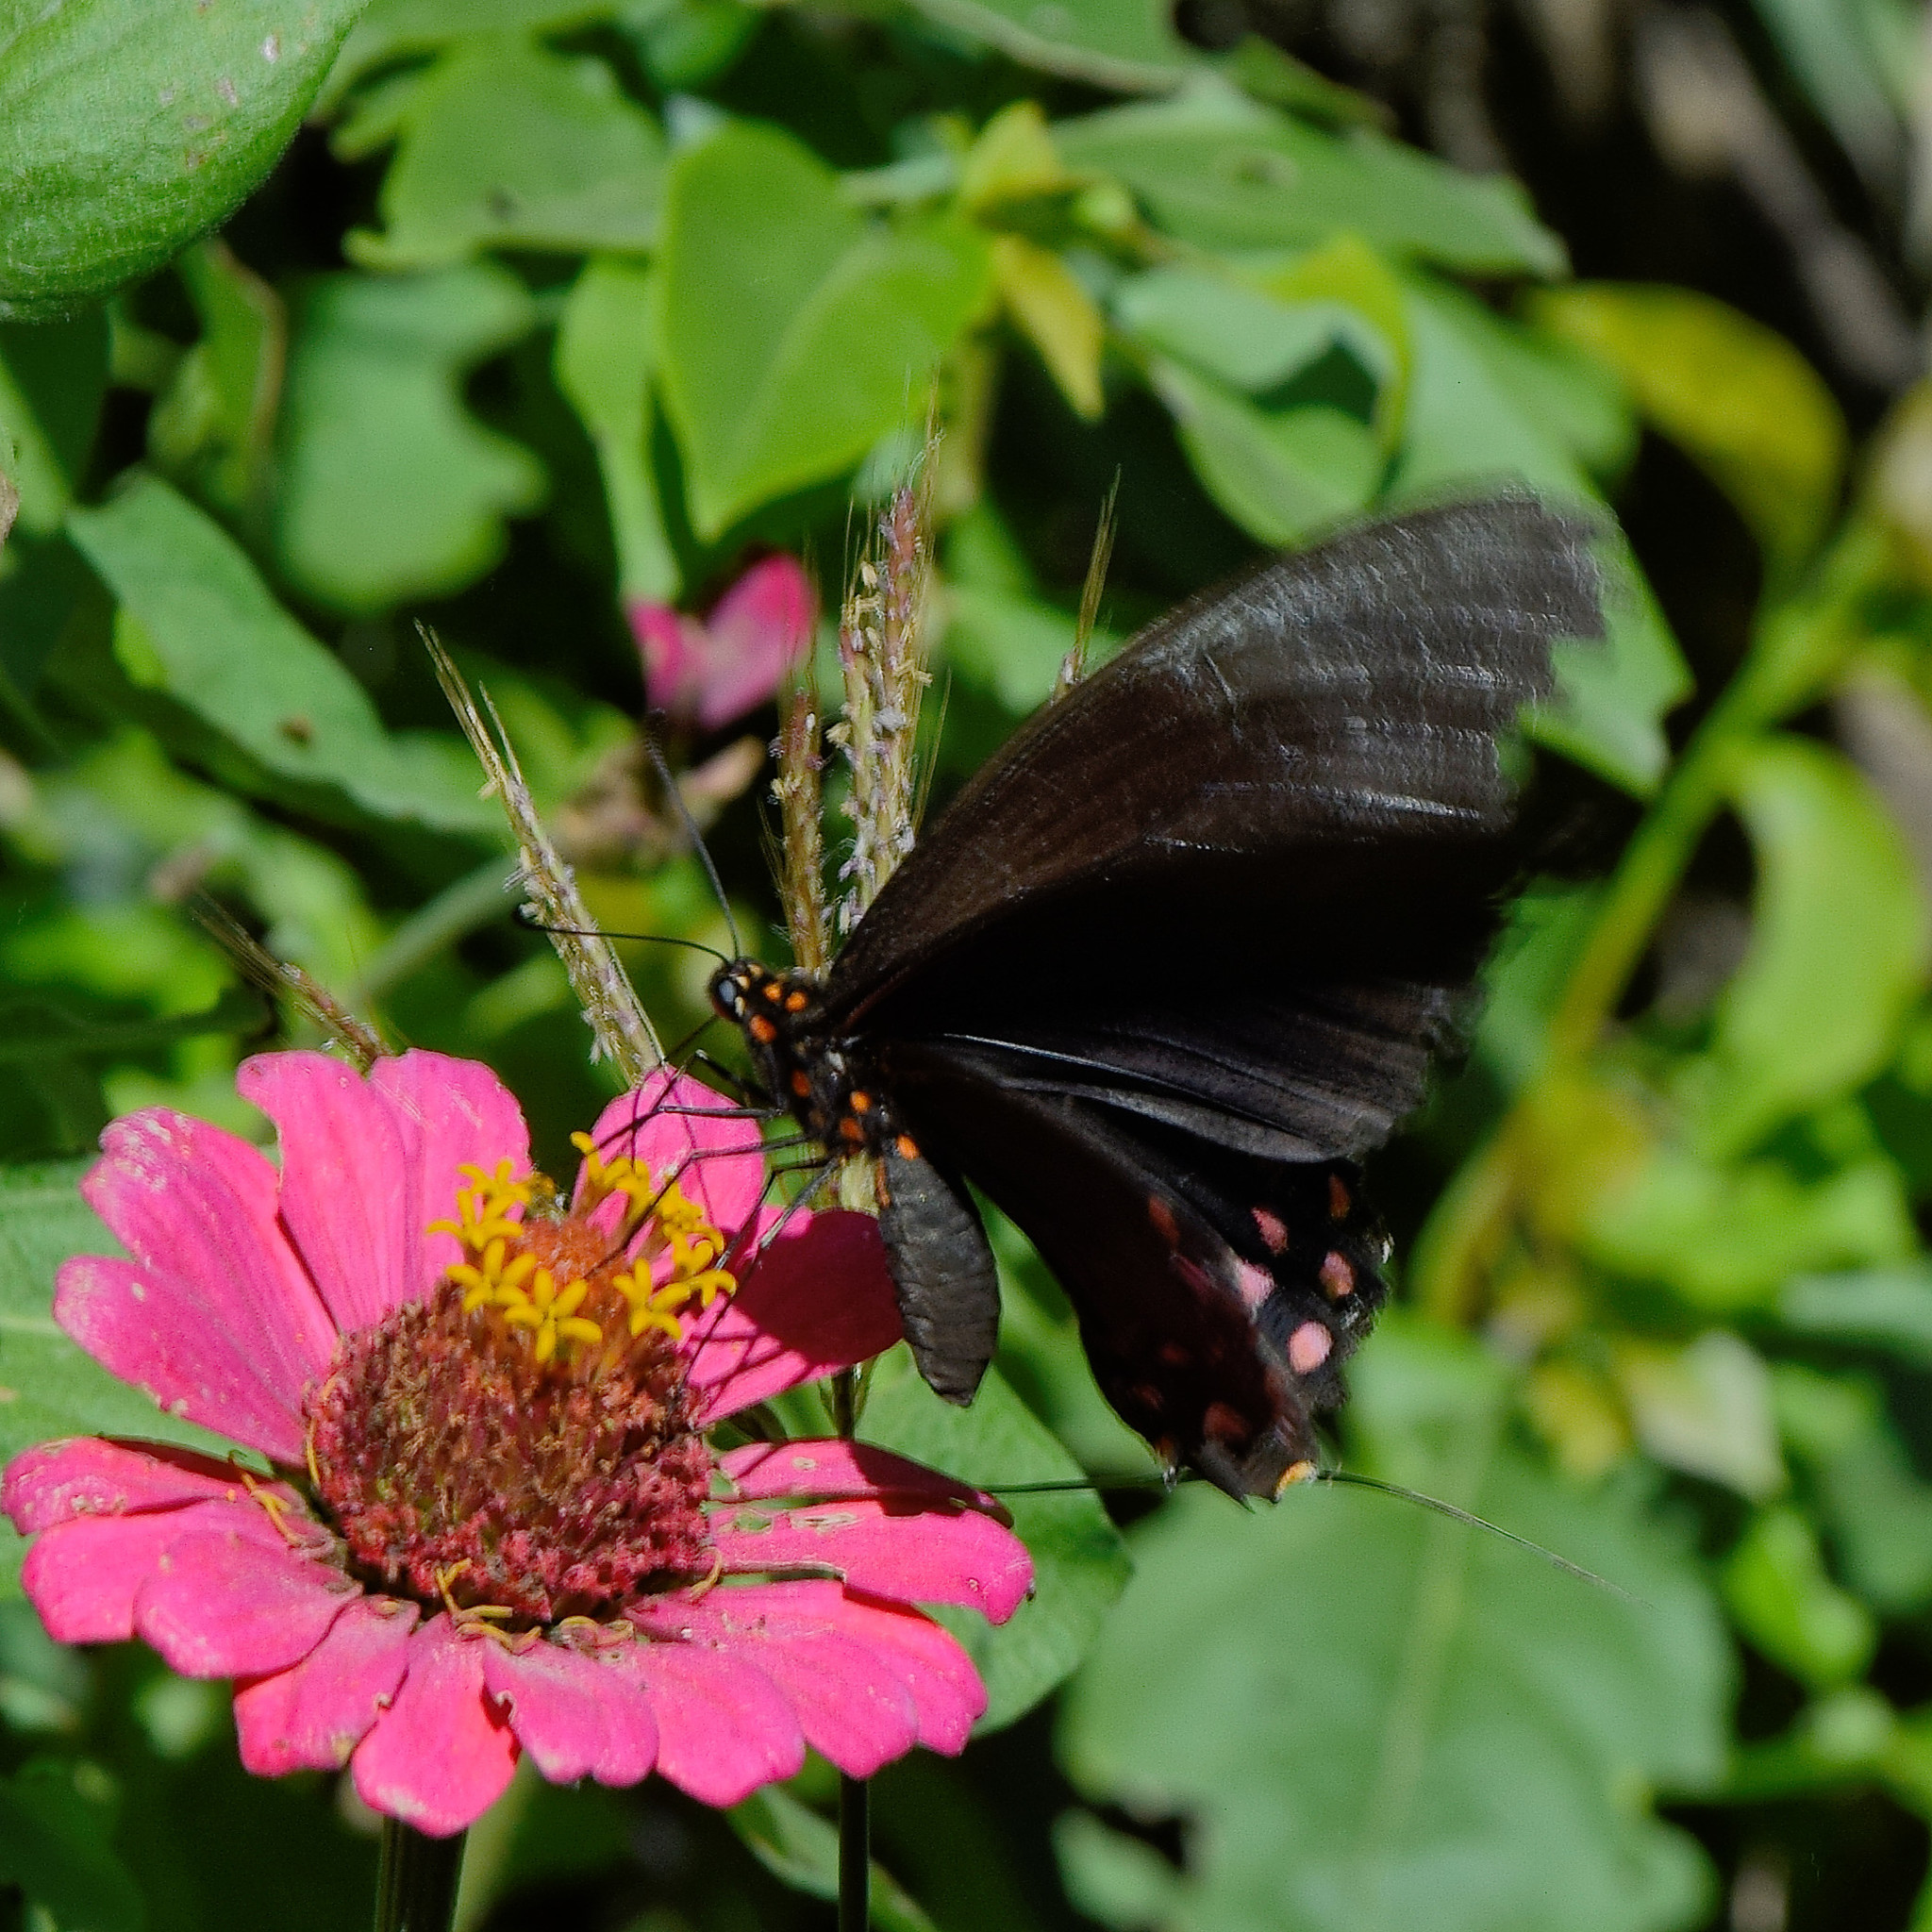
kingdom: Animalia
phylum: Arthropoda
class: Insecta
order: Lepidoptera
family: Papilionidae
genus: Heraclides
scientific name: Heraclides rogeri
